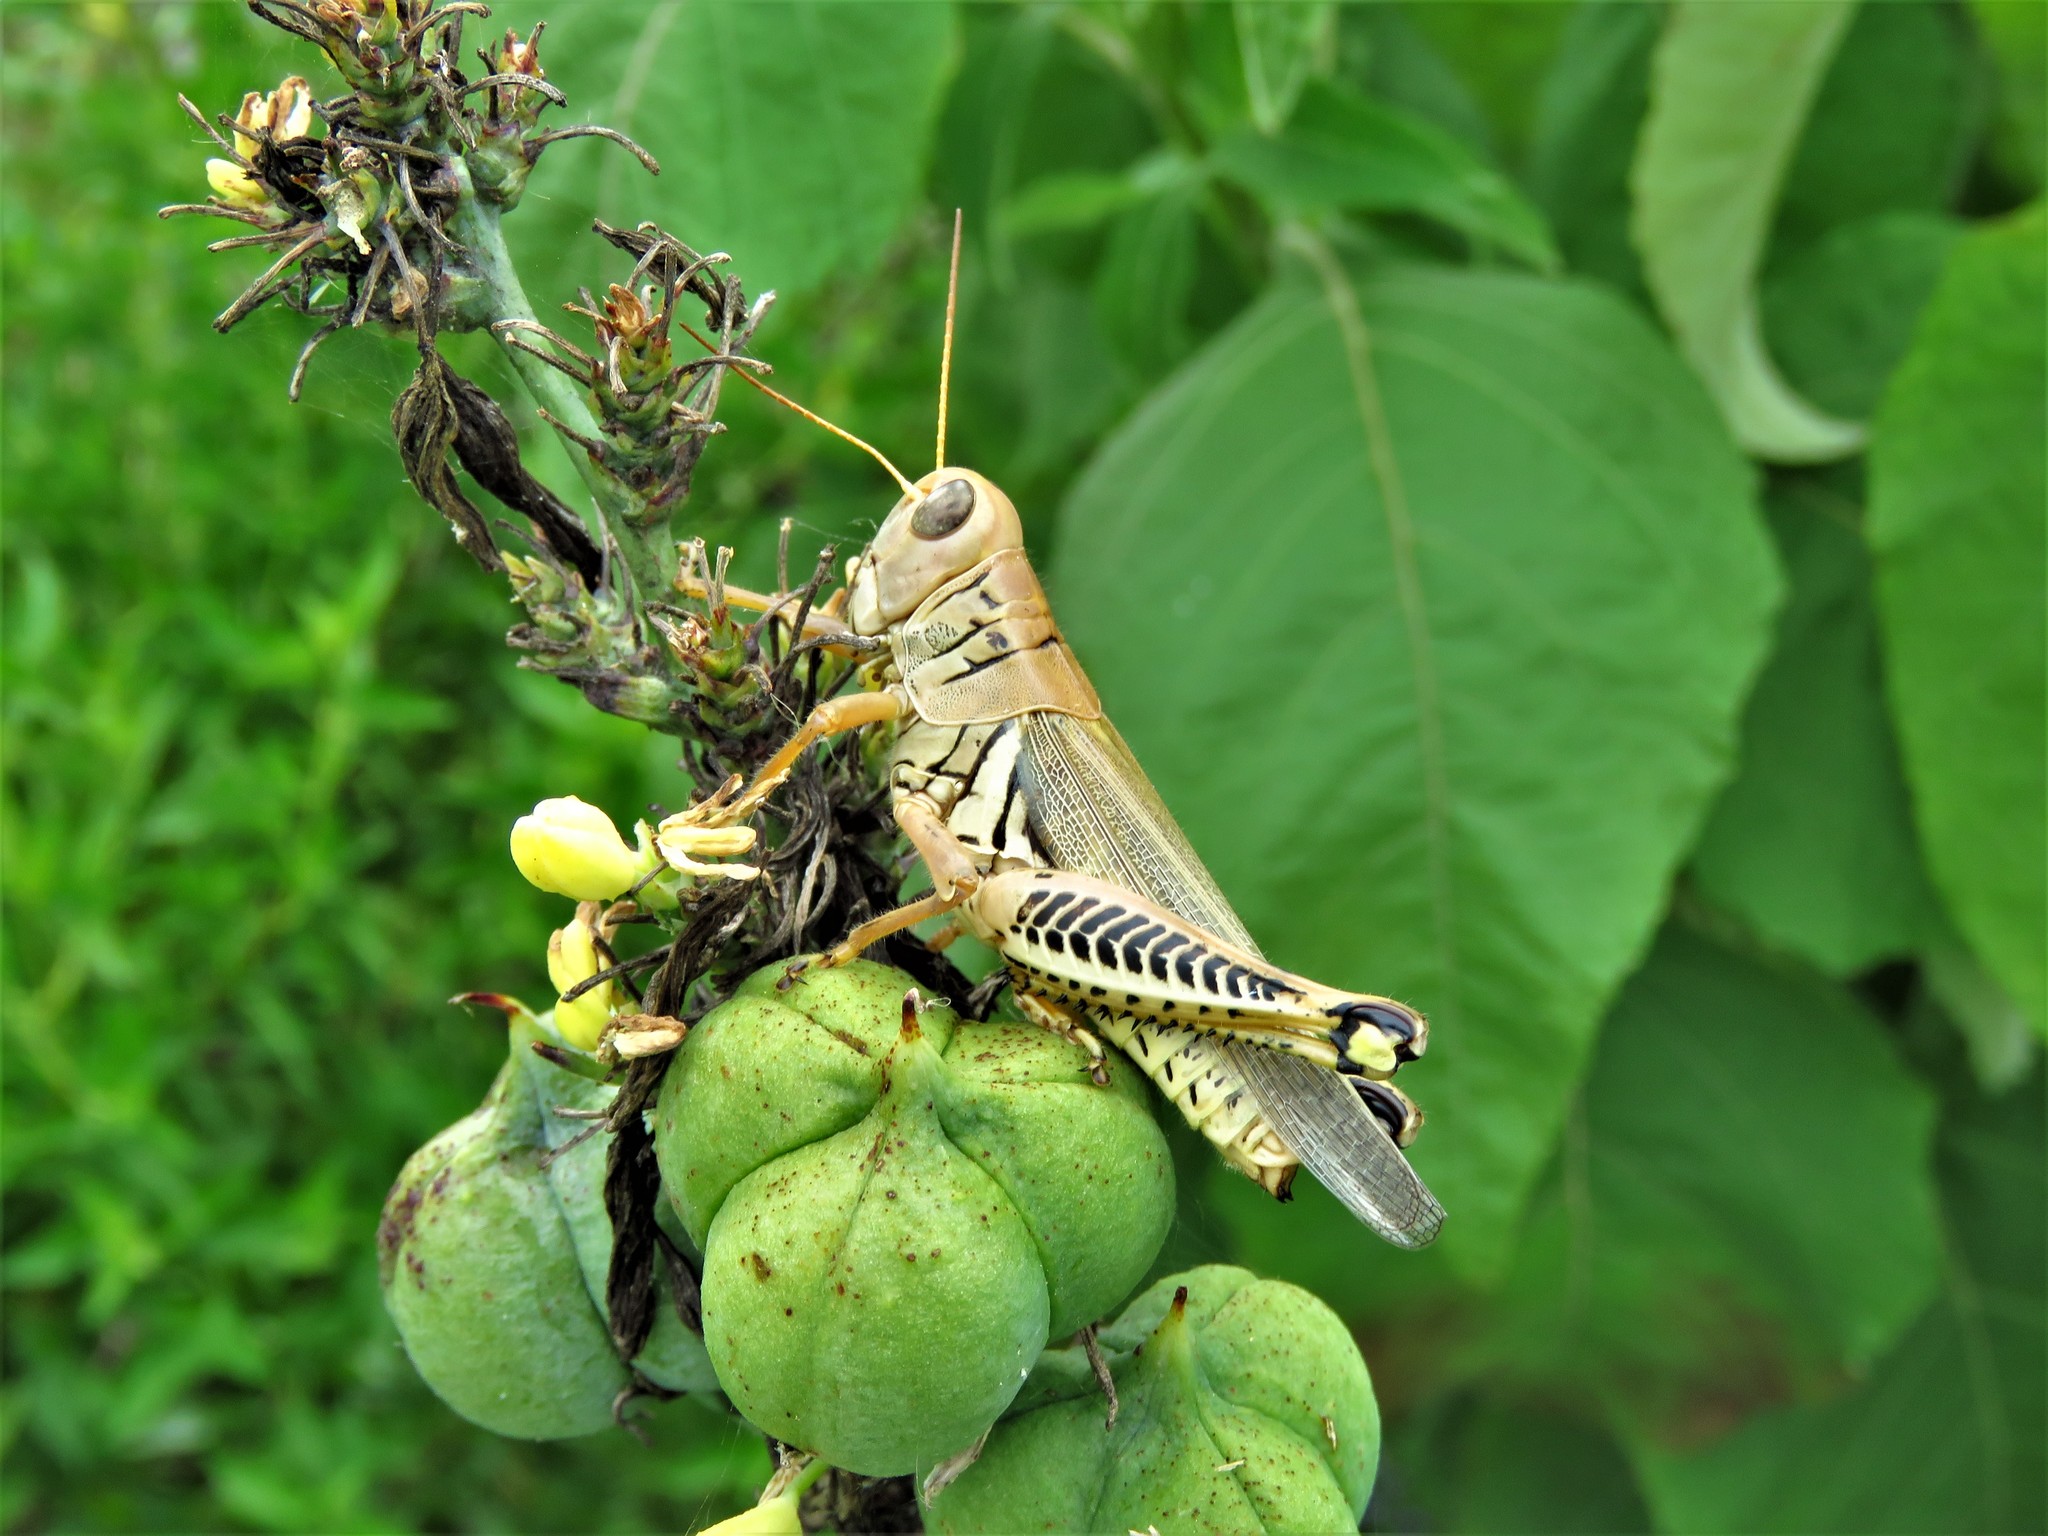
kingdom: Animalia
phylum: Arthropoda
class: Insecta
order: Orthoptera
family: Acrididae
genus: Melanoplus
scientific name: Melanoplus differentialis
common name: Differential grasshopper
